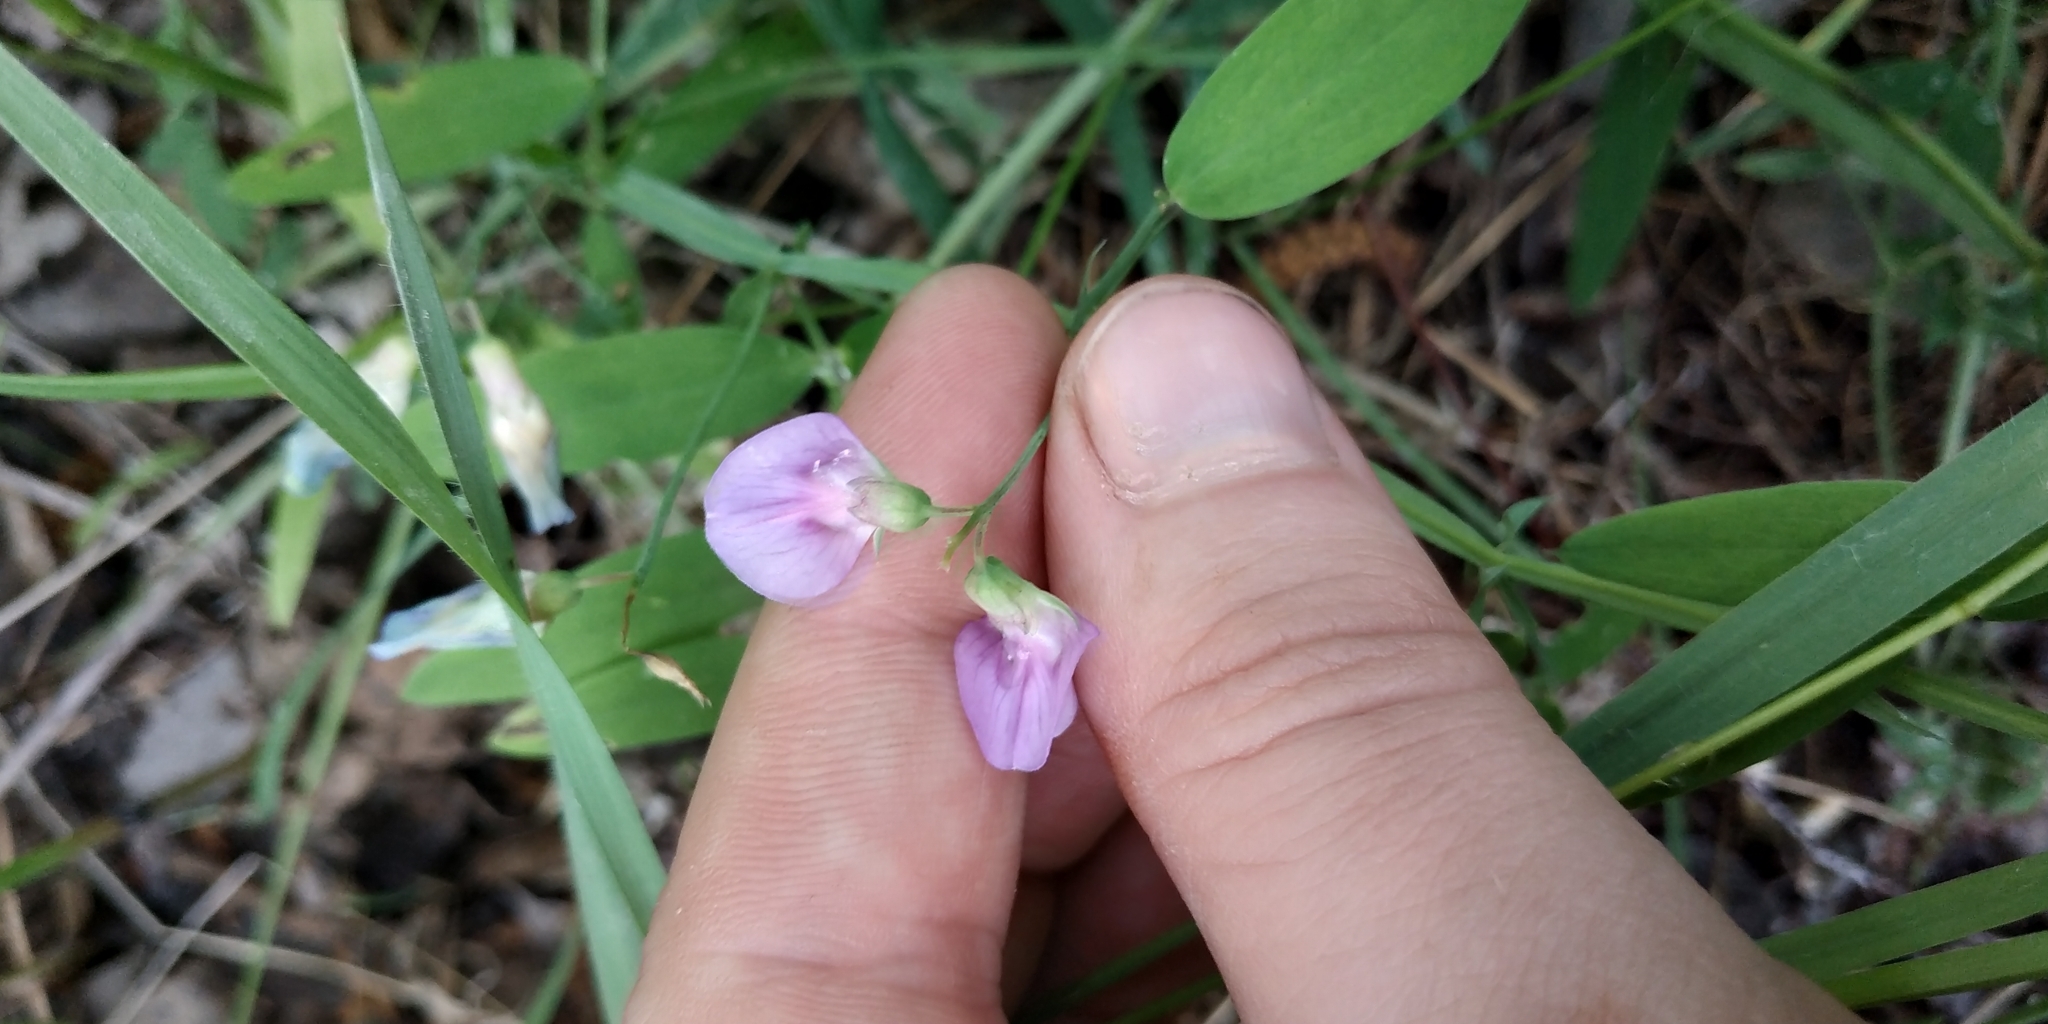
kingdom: Plantae
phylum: Tracheophyta
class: Magnoliopsida
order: Fabales
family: Fabaceae
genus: Lathyrus
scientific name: Lathyrus palustris
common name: Marsh pea
